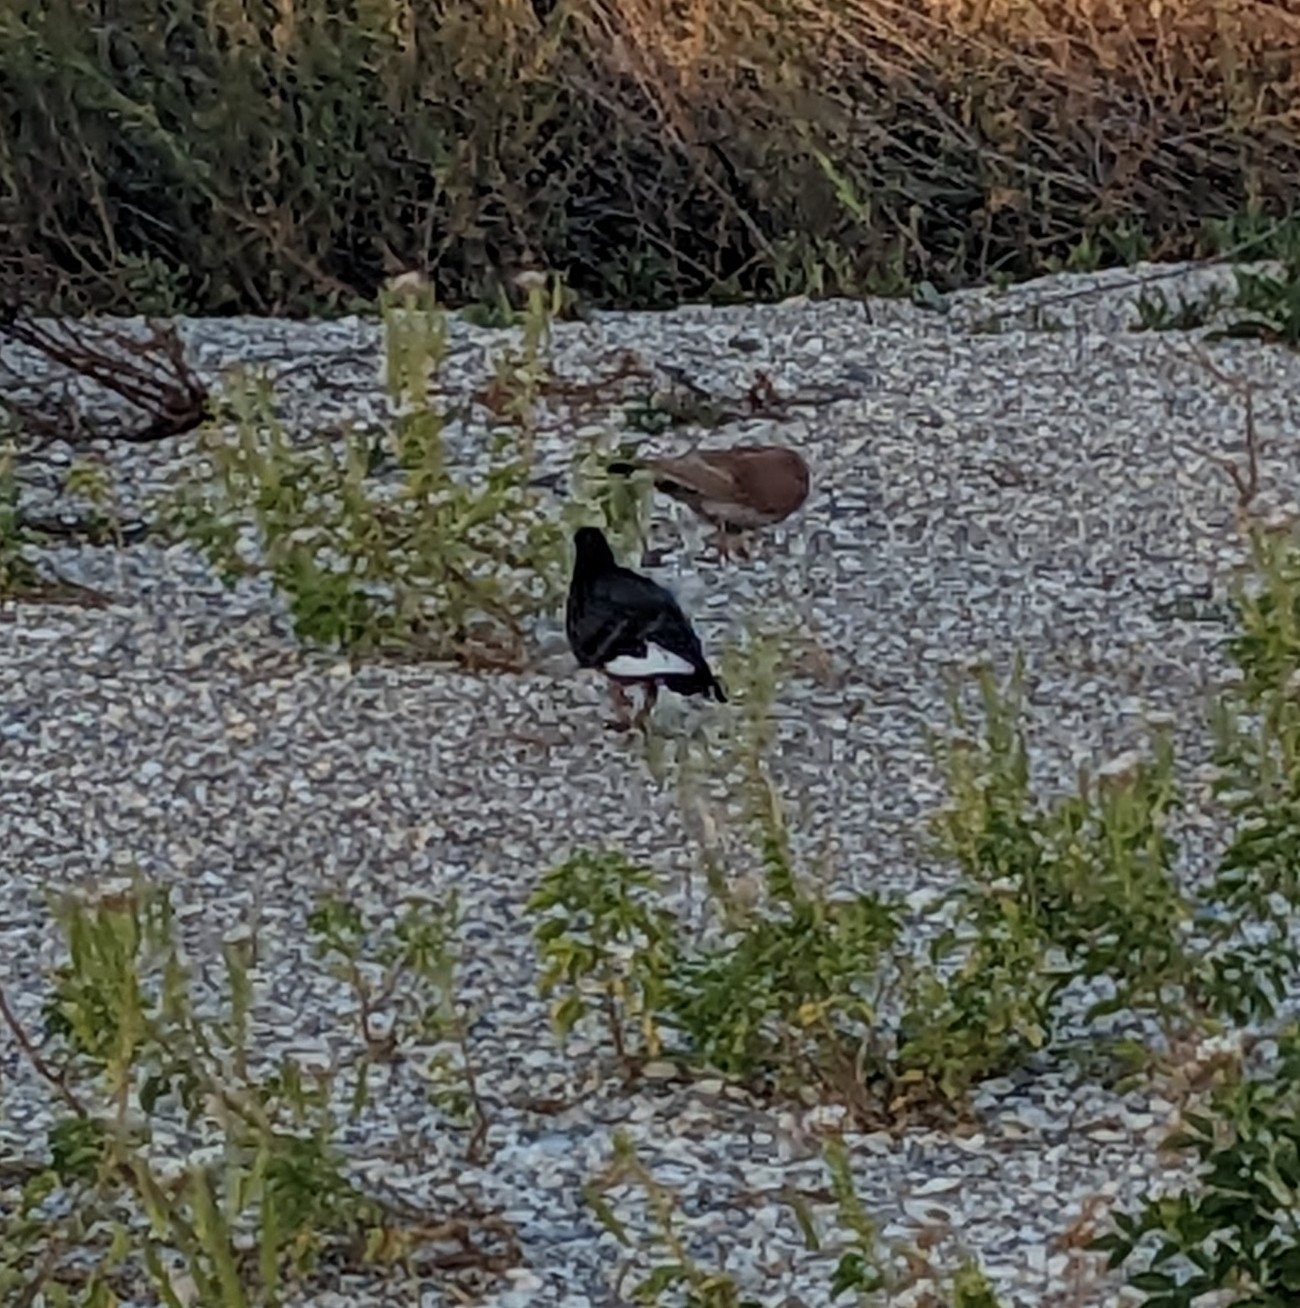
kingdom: Animalia
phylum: Chordata
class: Aves
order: Columbiformes
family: Columbidae
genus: Columba
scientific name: Columba livia
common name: Rock pigeon
